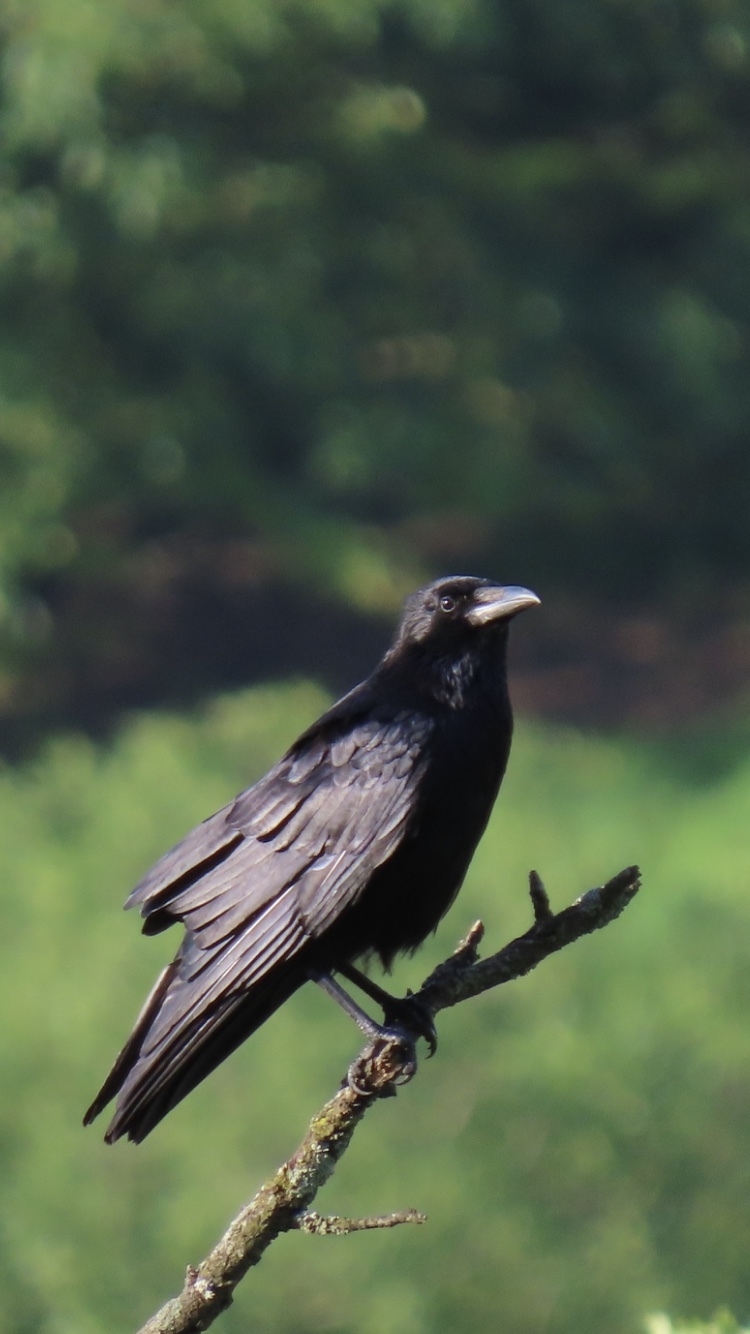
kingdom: Animalia
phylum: Chordata
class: Aves
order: Passeriformes
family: Corvidae
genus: Corvus
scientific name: Corvus corone
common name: Carrion crow
